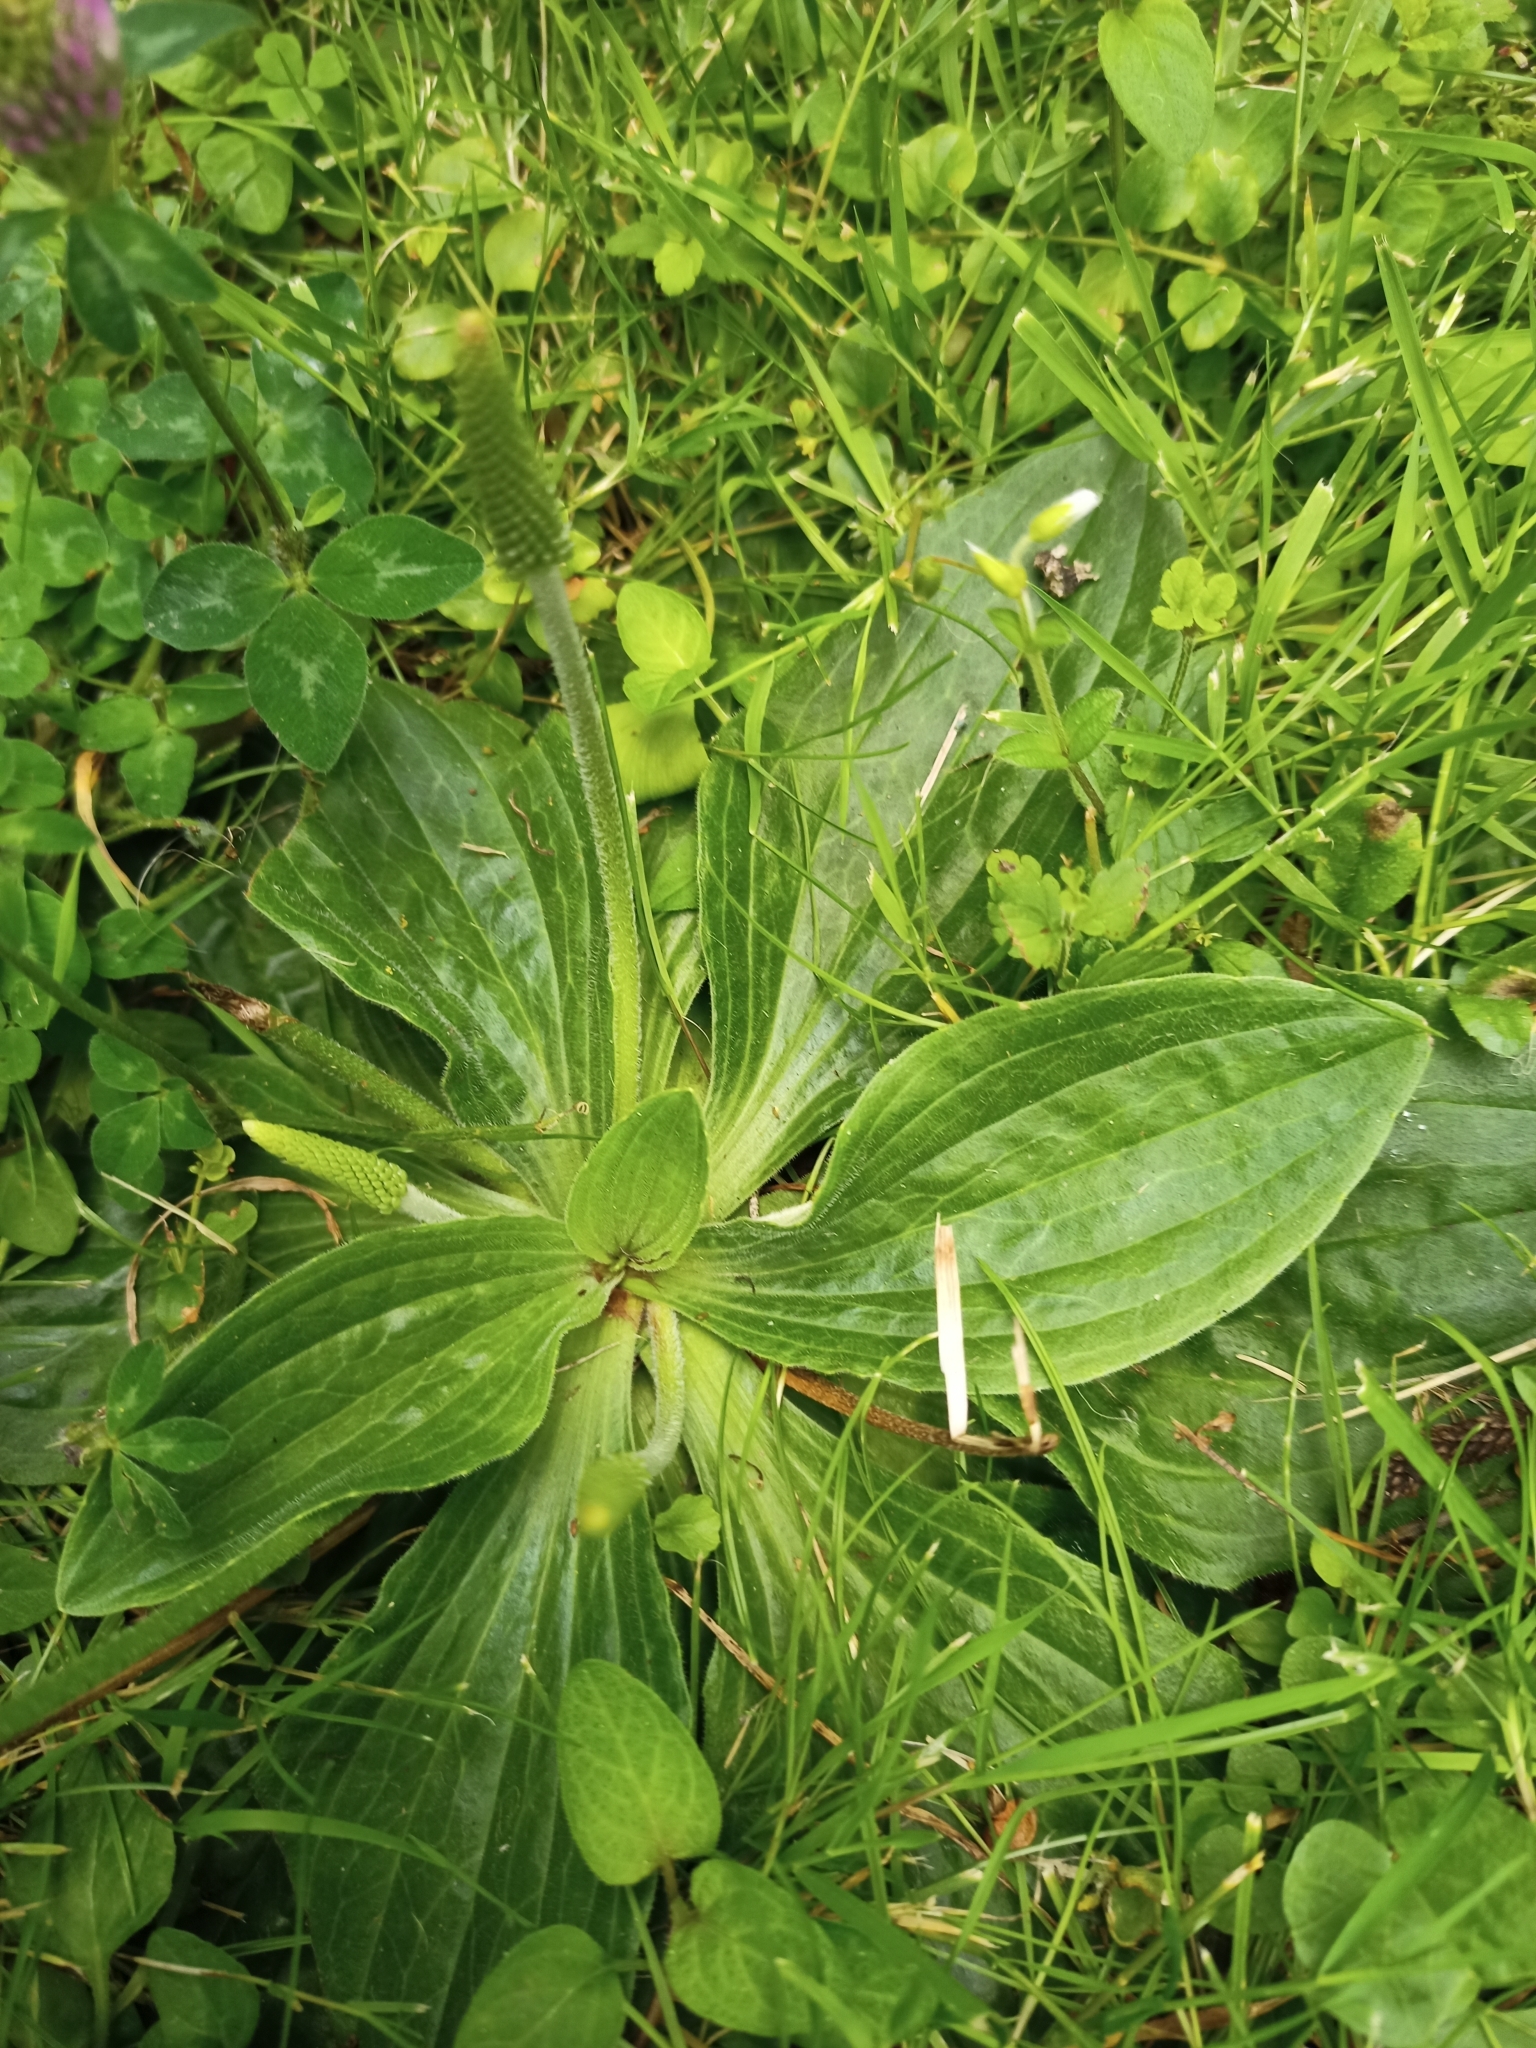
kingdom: Plantae
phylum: Tracheophyta
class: Magnoliopsida
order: Lamiales
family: Plantaginaceae
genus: Plantago
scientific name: Plantago media
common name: Hoary plantain
